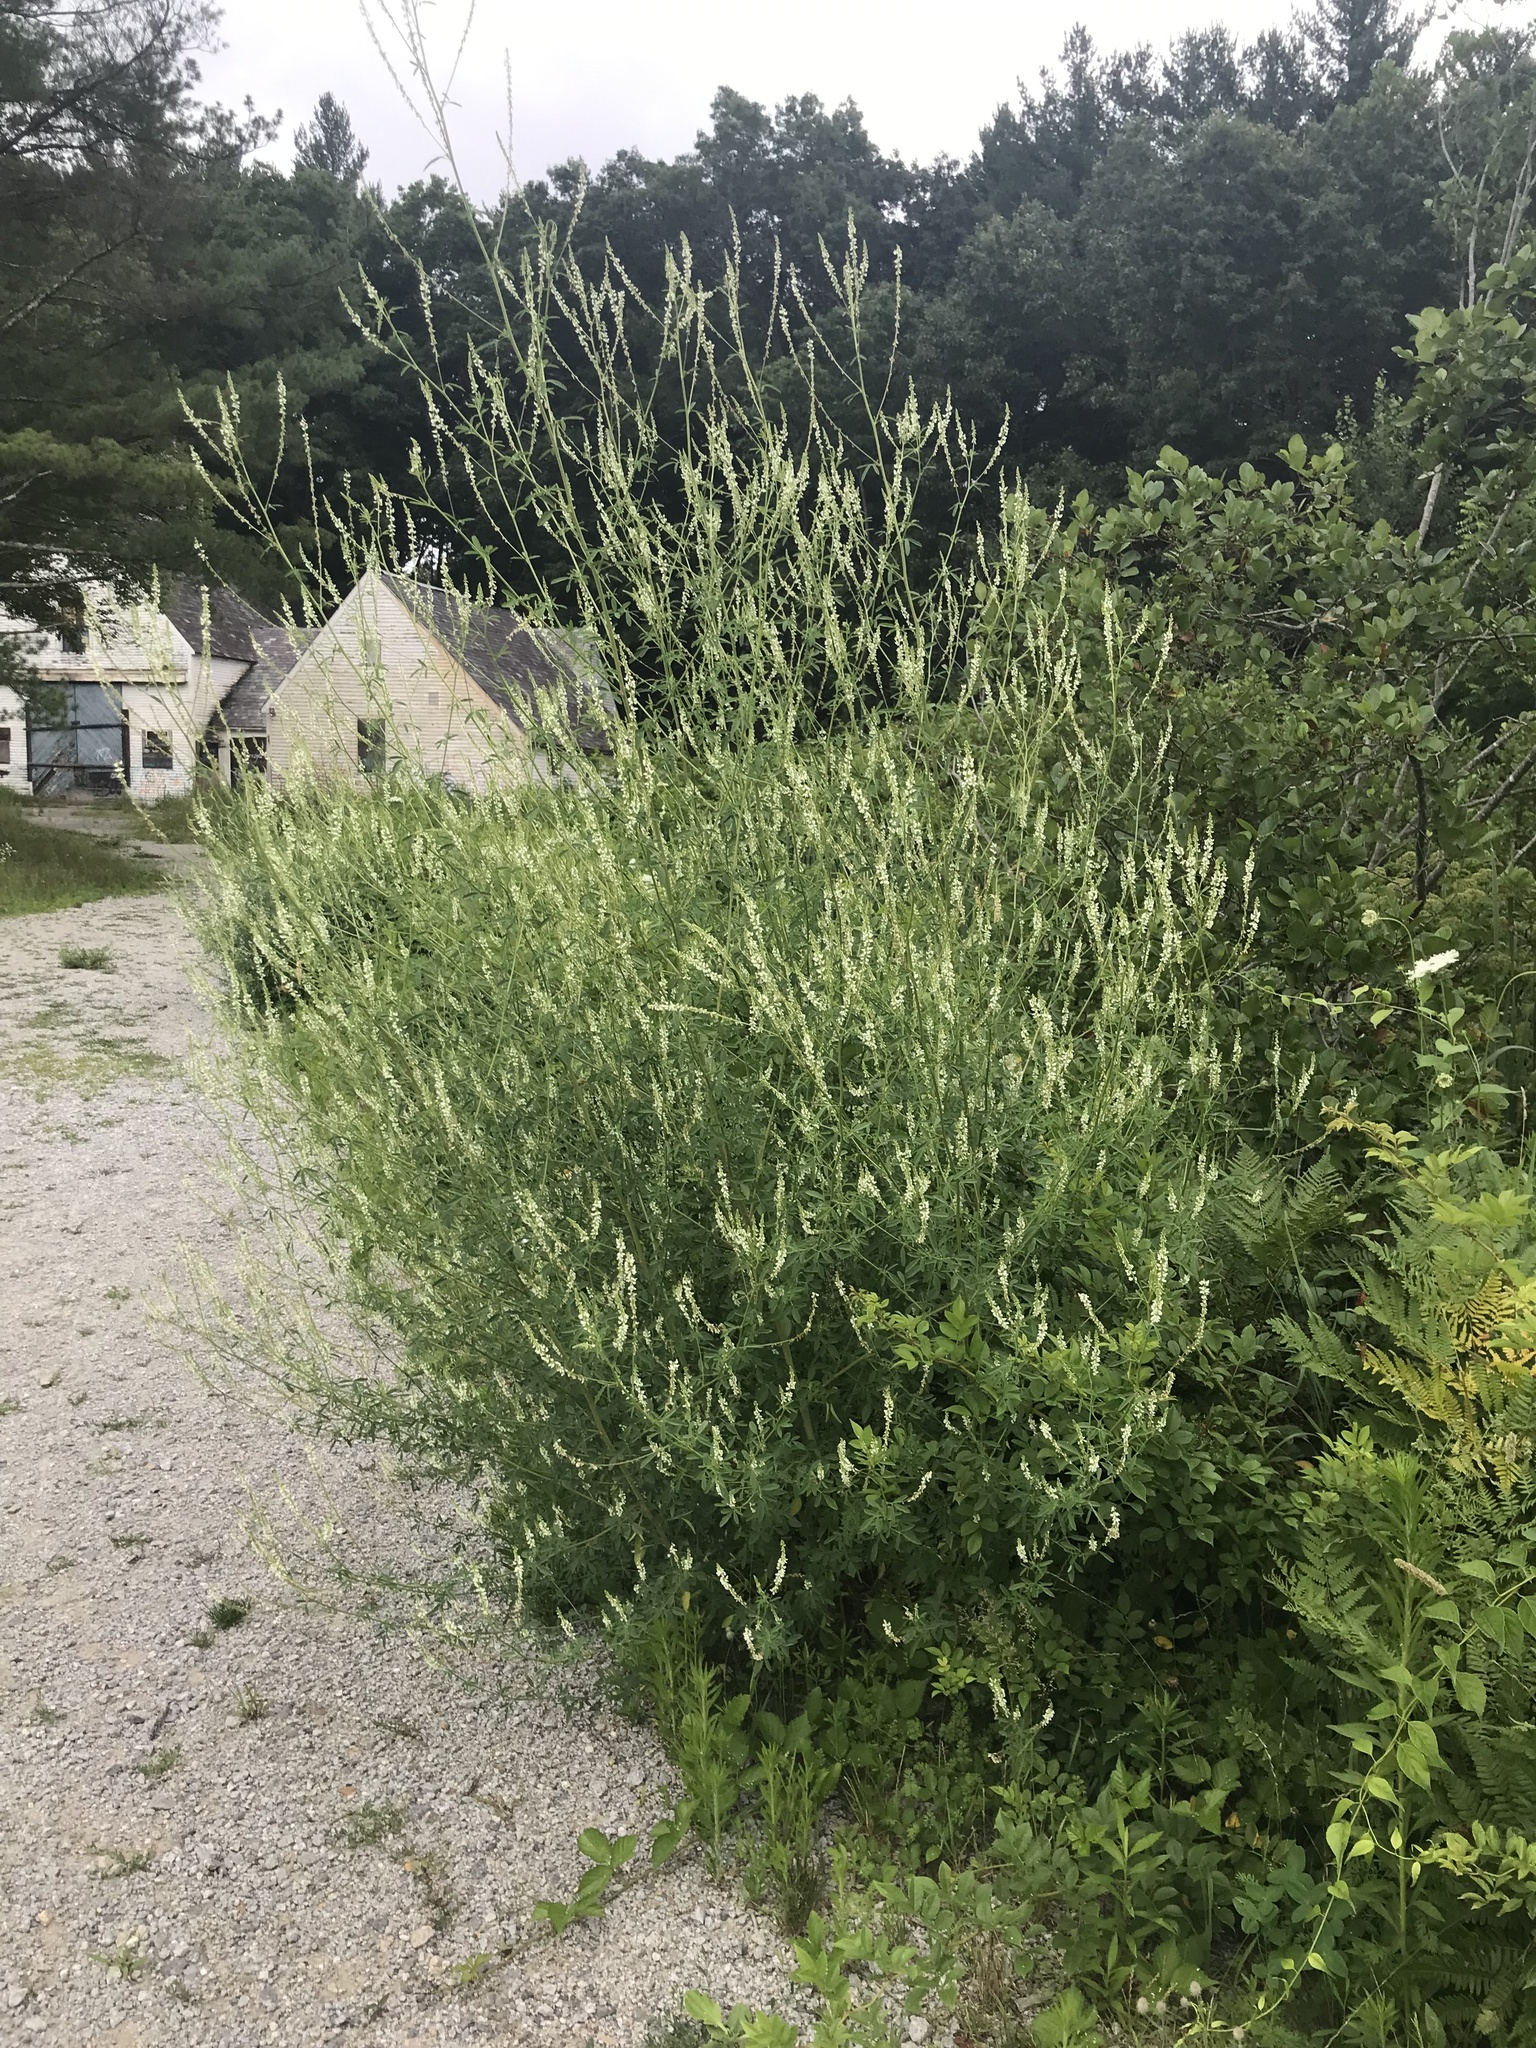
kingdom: Plantae
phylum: Tracheophyta
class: Magnoliopsida
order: Fabales
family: Fabaceae
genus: Melilotus
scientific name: Melilotus albus
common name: White melilot
